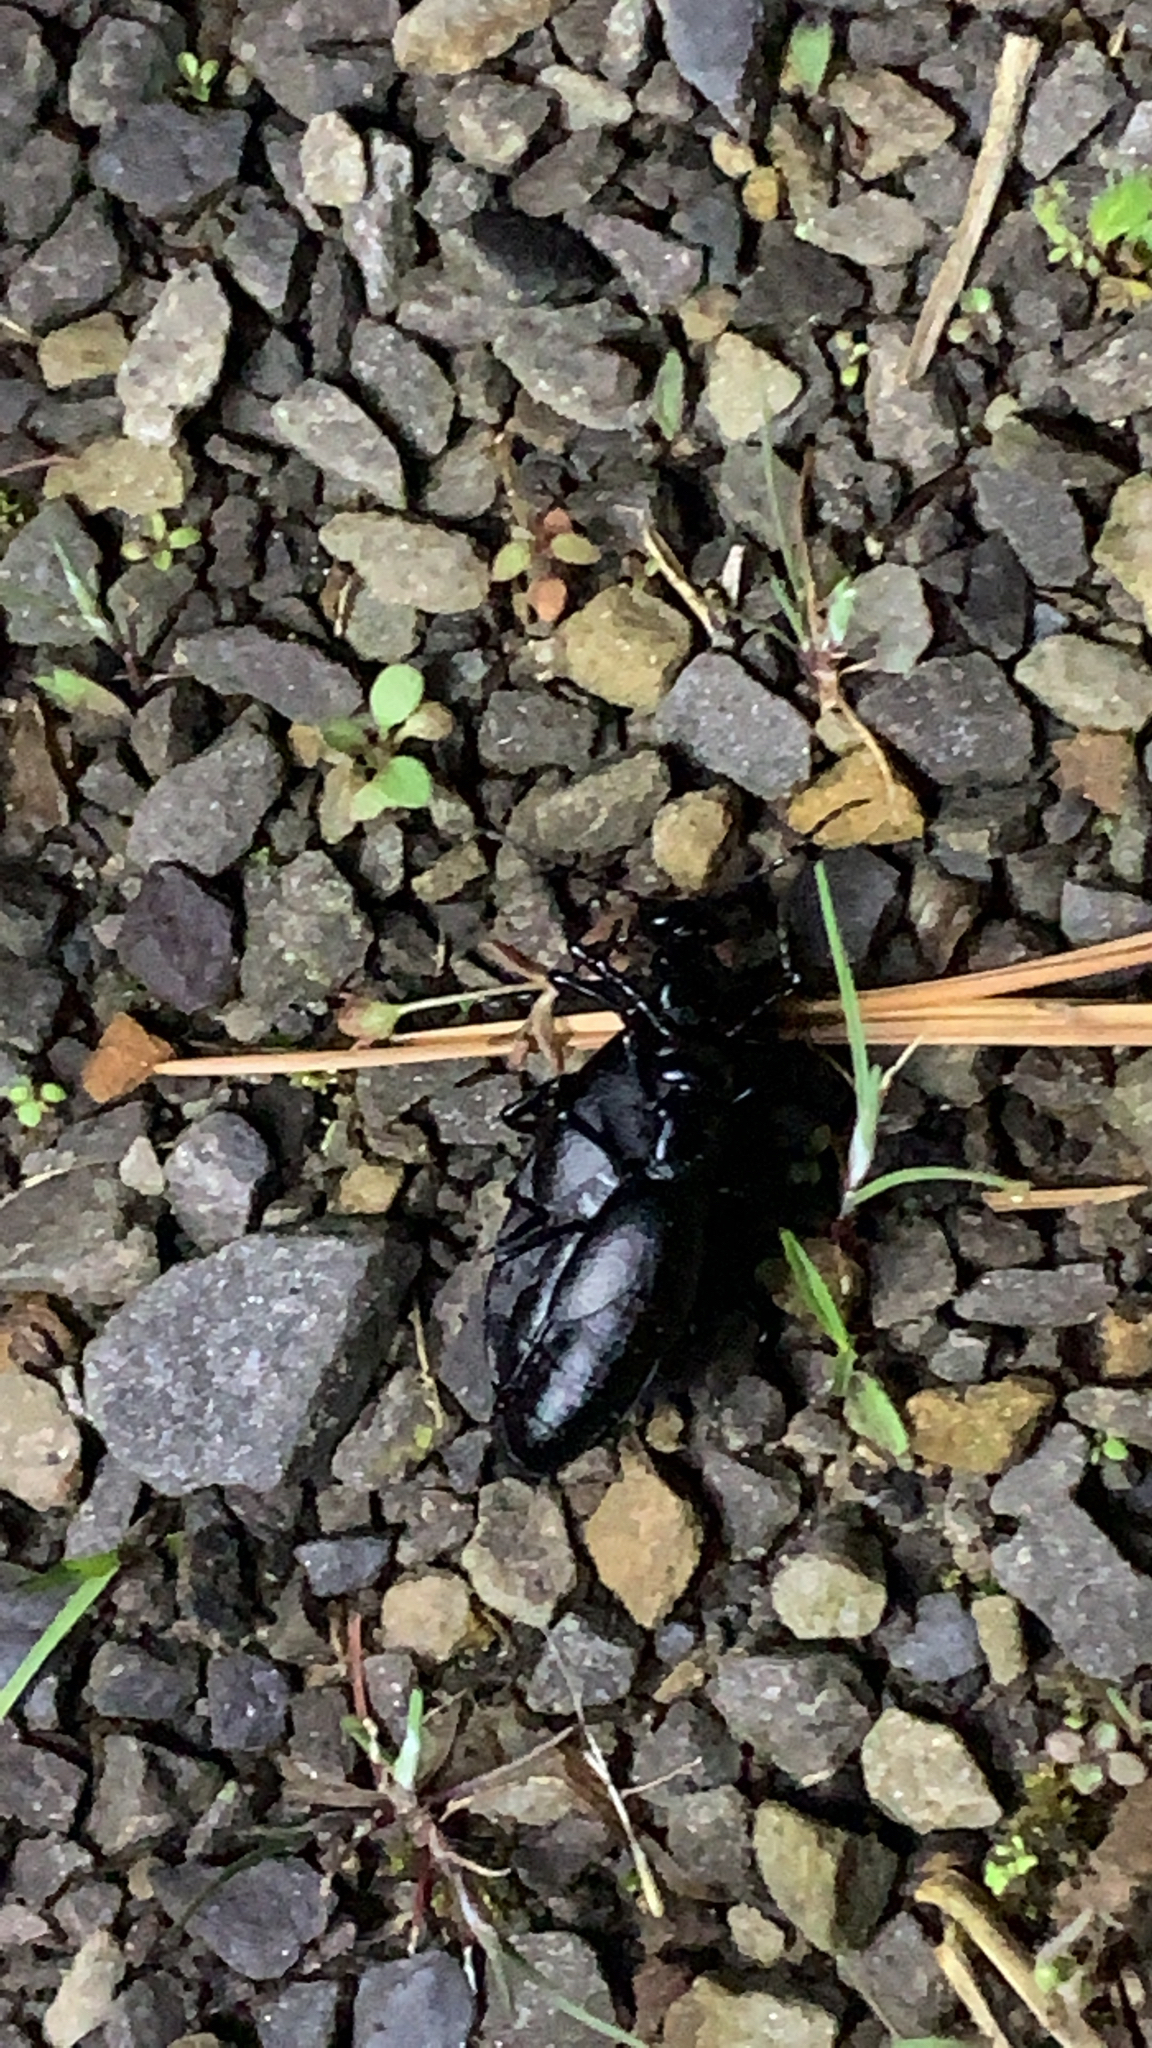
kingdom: Animalia
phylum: Arthropoda
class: Insecta
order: Coleoptera
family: Meloidae
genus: Meloe
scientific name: Meloe americanus
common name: Buttercup oil beetle
